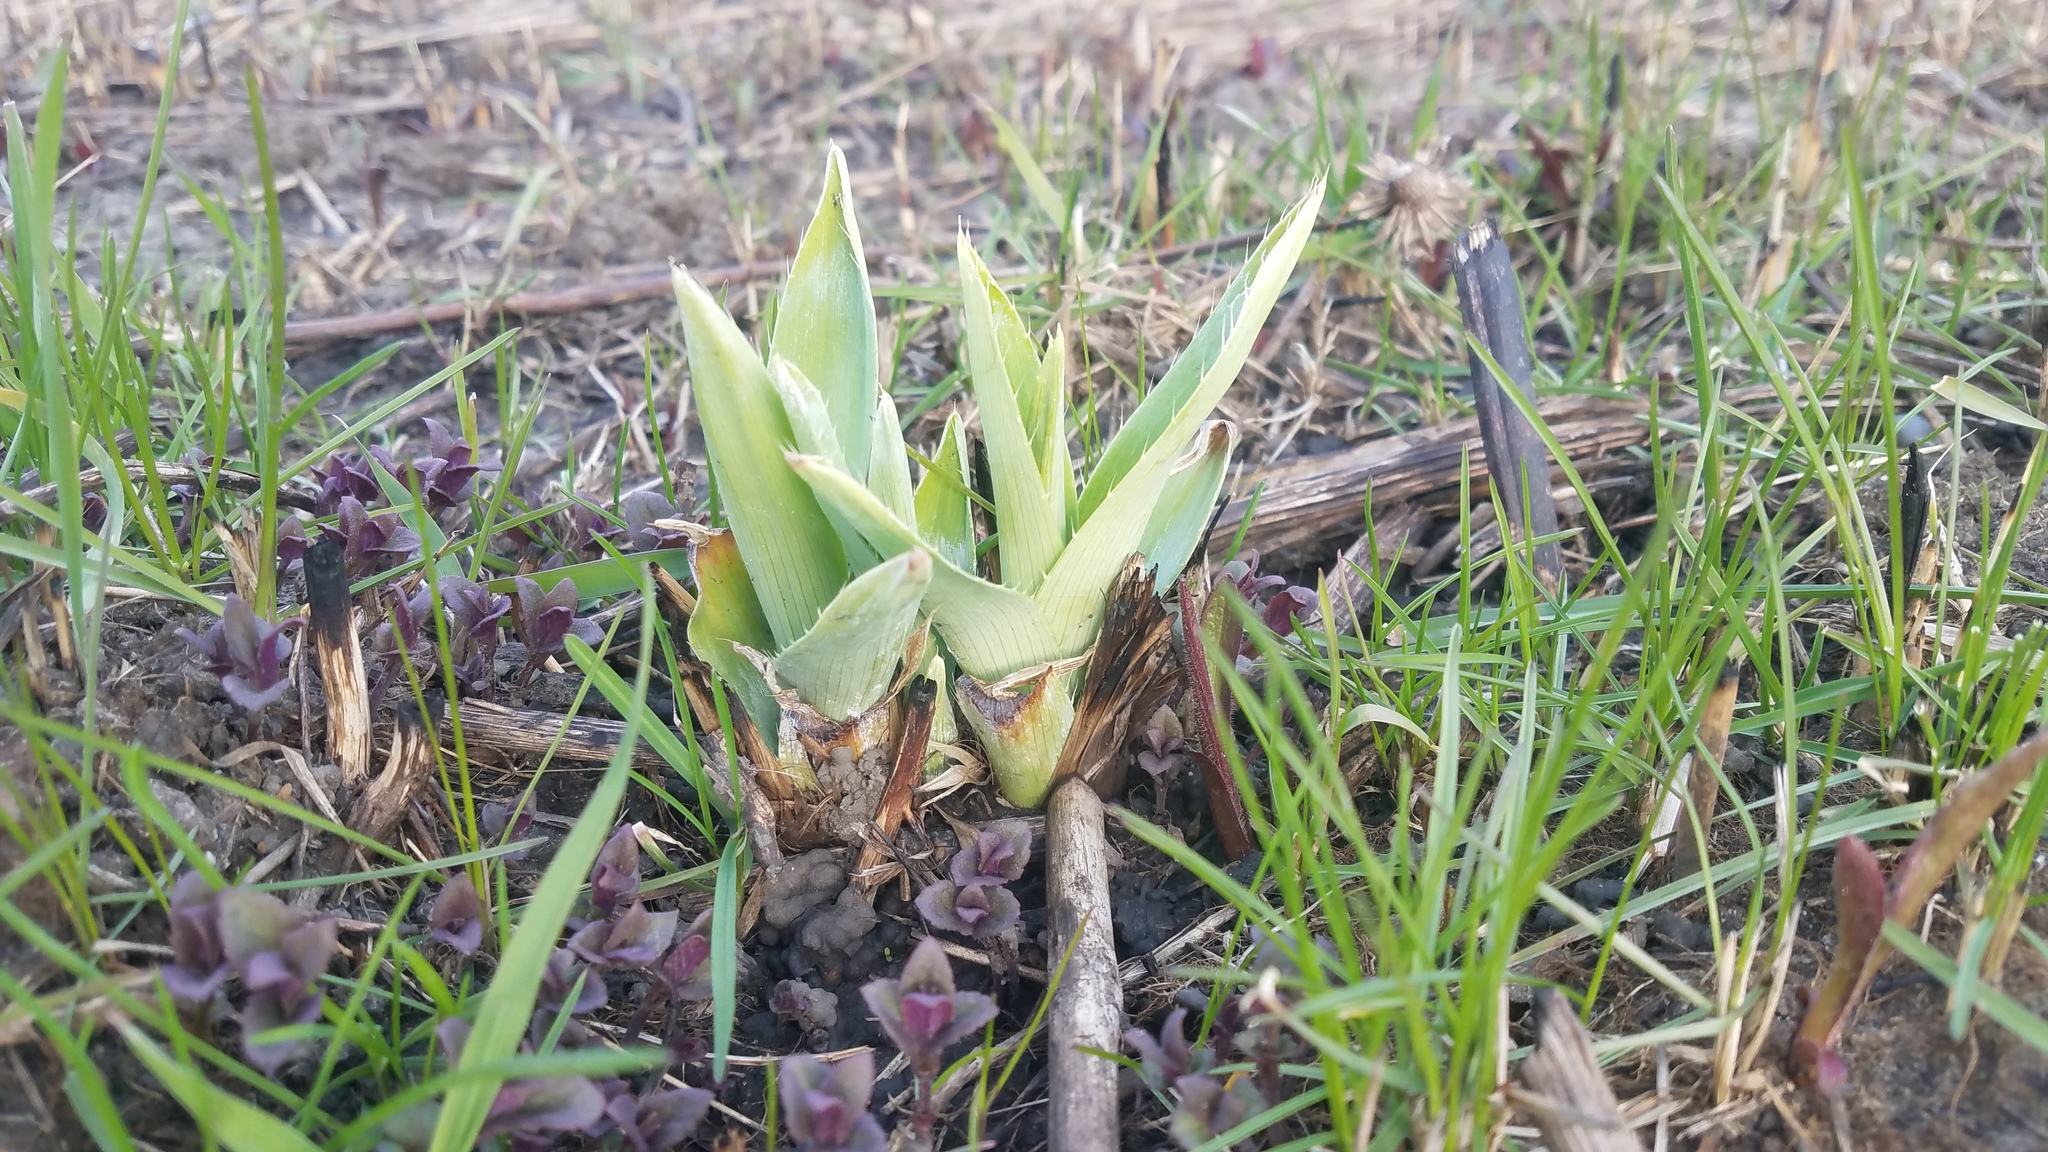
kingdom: Plantae
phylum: Tracheophyta
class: Magnoliopsida
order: Apiales
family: Apiaceae
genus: Eryngium
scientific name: Eryngium yuccifolium
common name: Button eryngo
